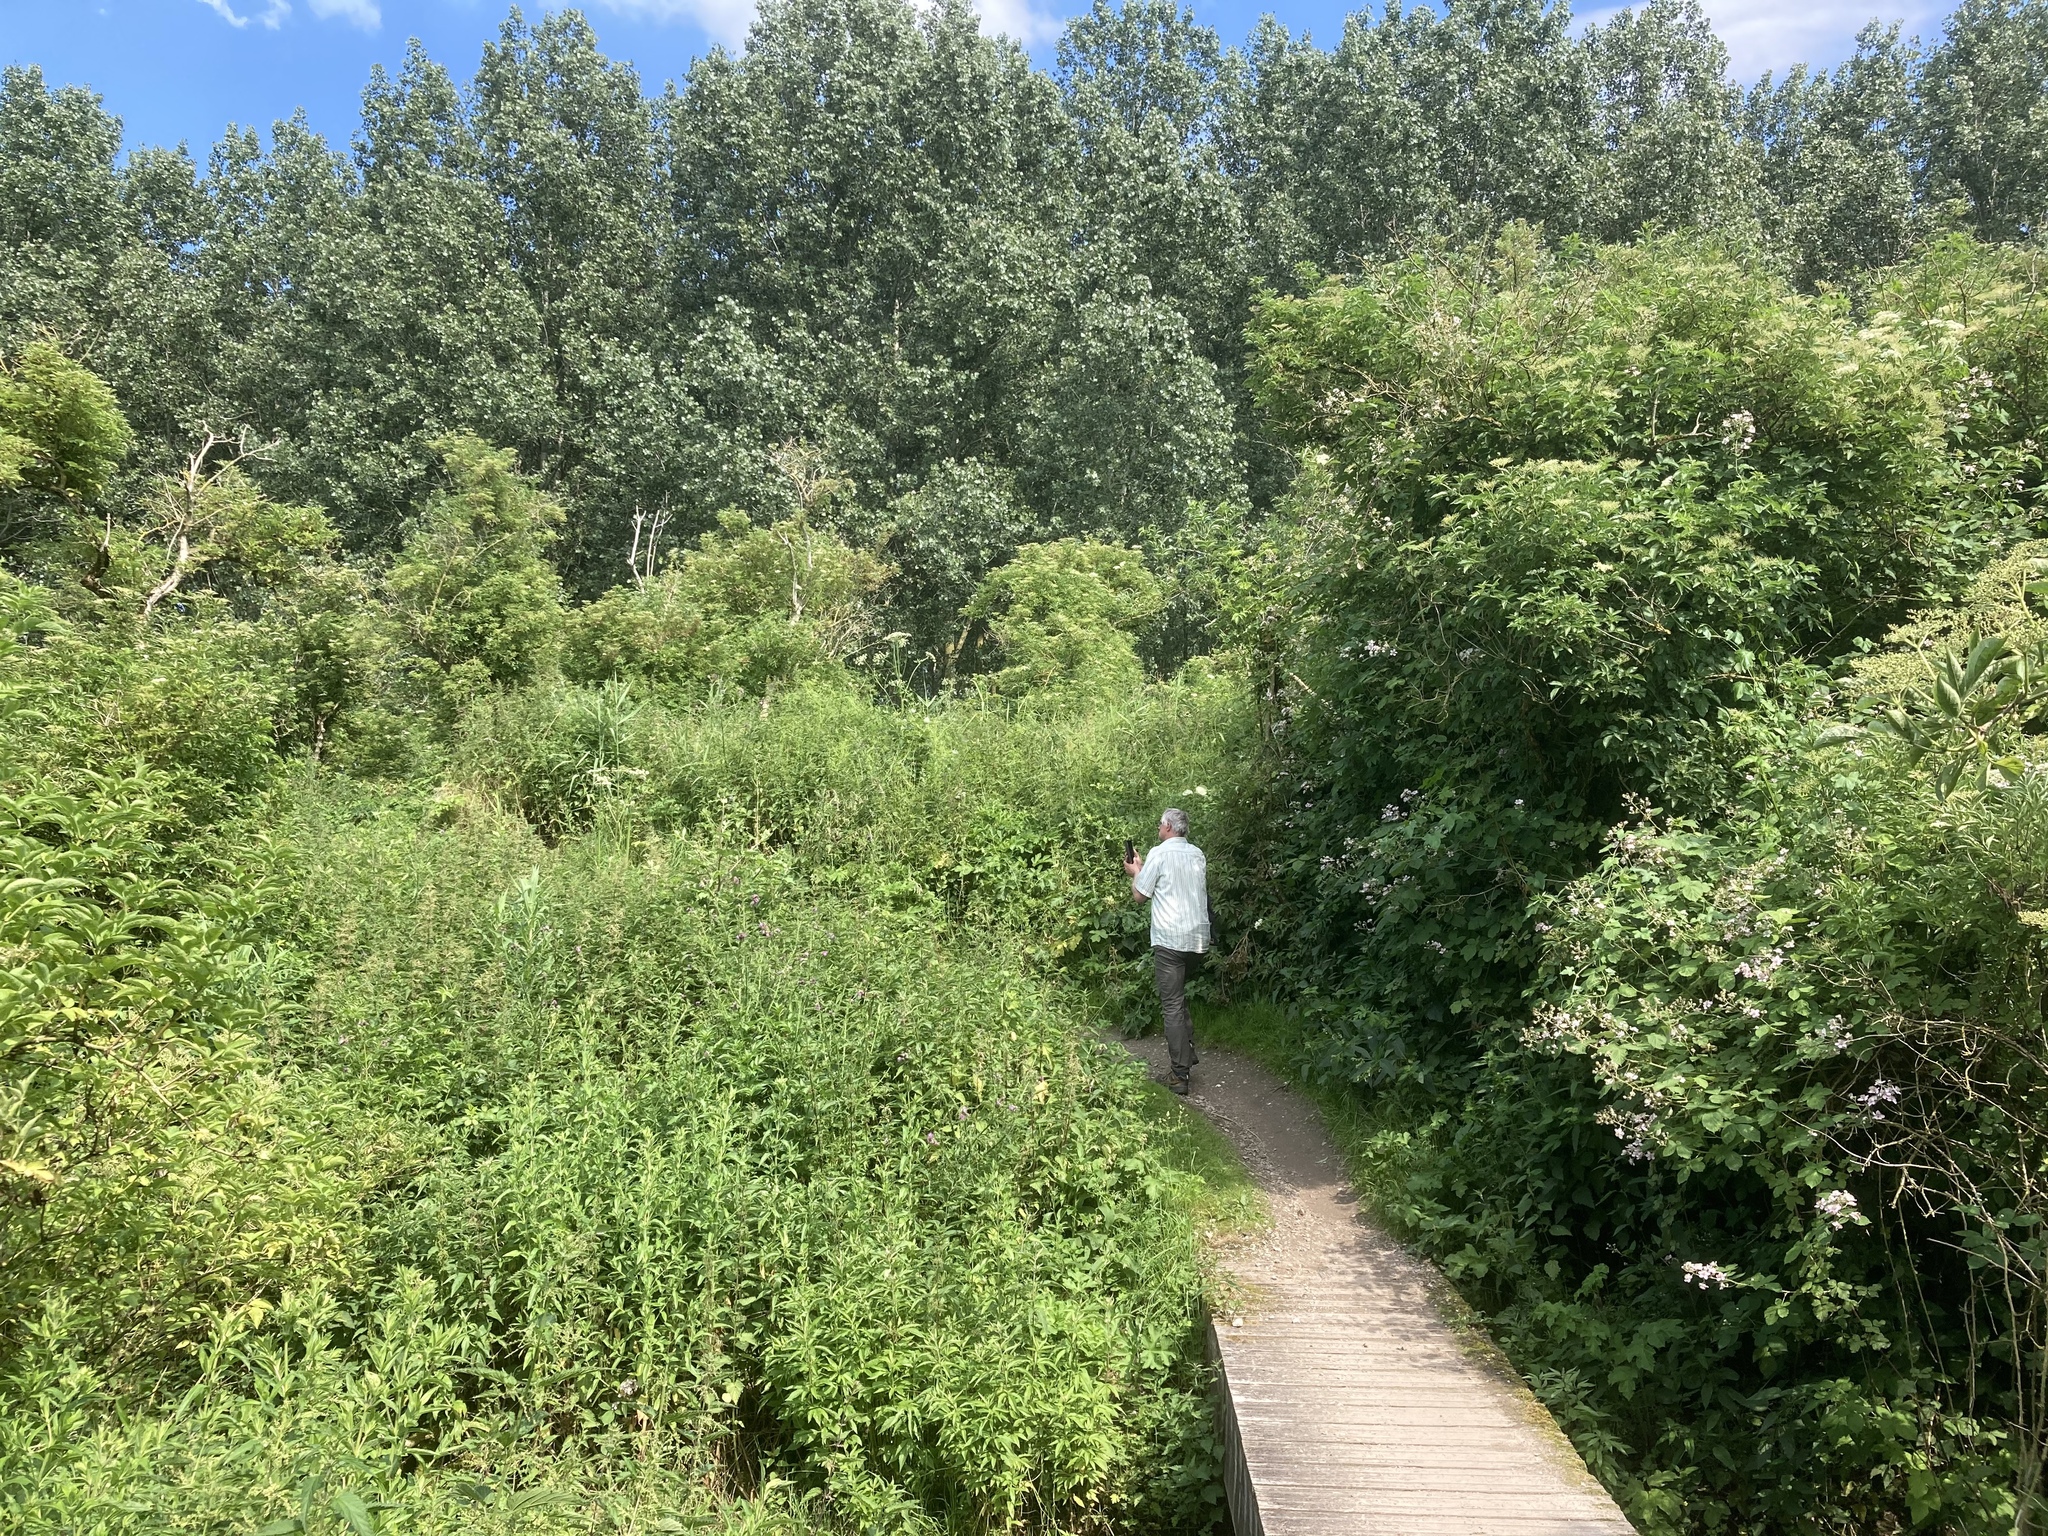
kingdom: Plantae
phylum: Tracheophyta
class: Magnoliopsida
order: Apiales
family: Apiaceae
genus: Heracleum
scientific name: Heracleum mantegazzianum
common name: Giant hogweed
